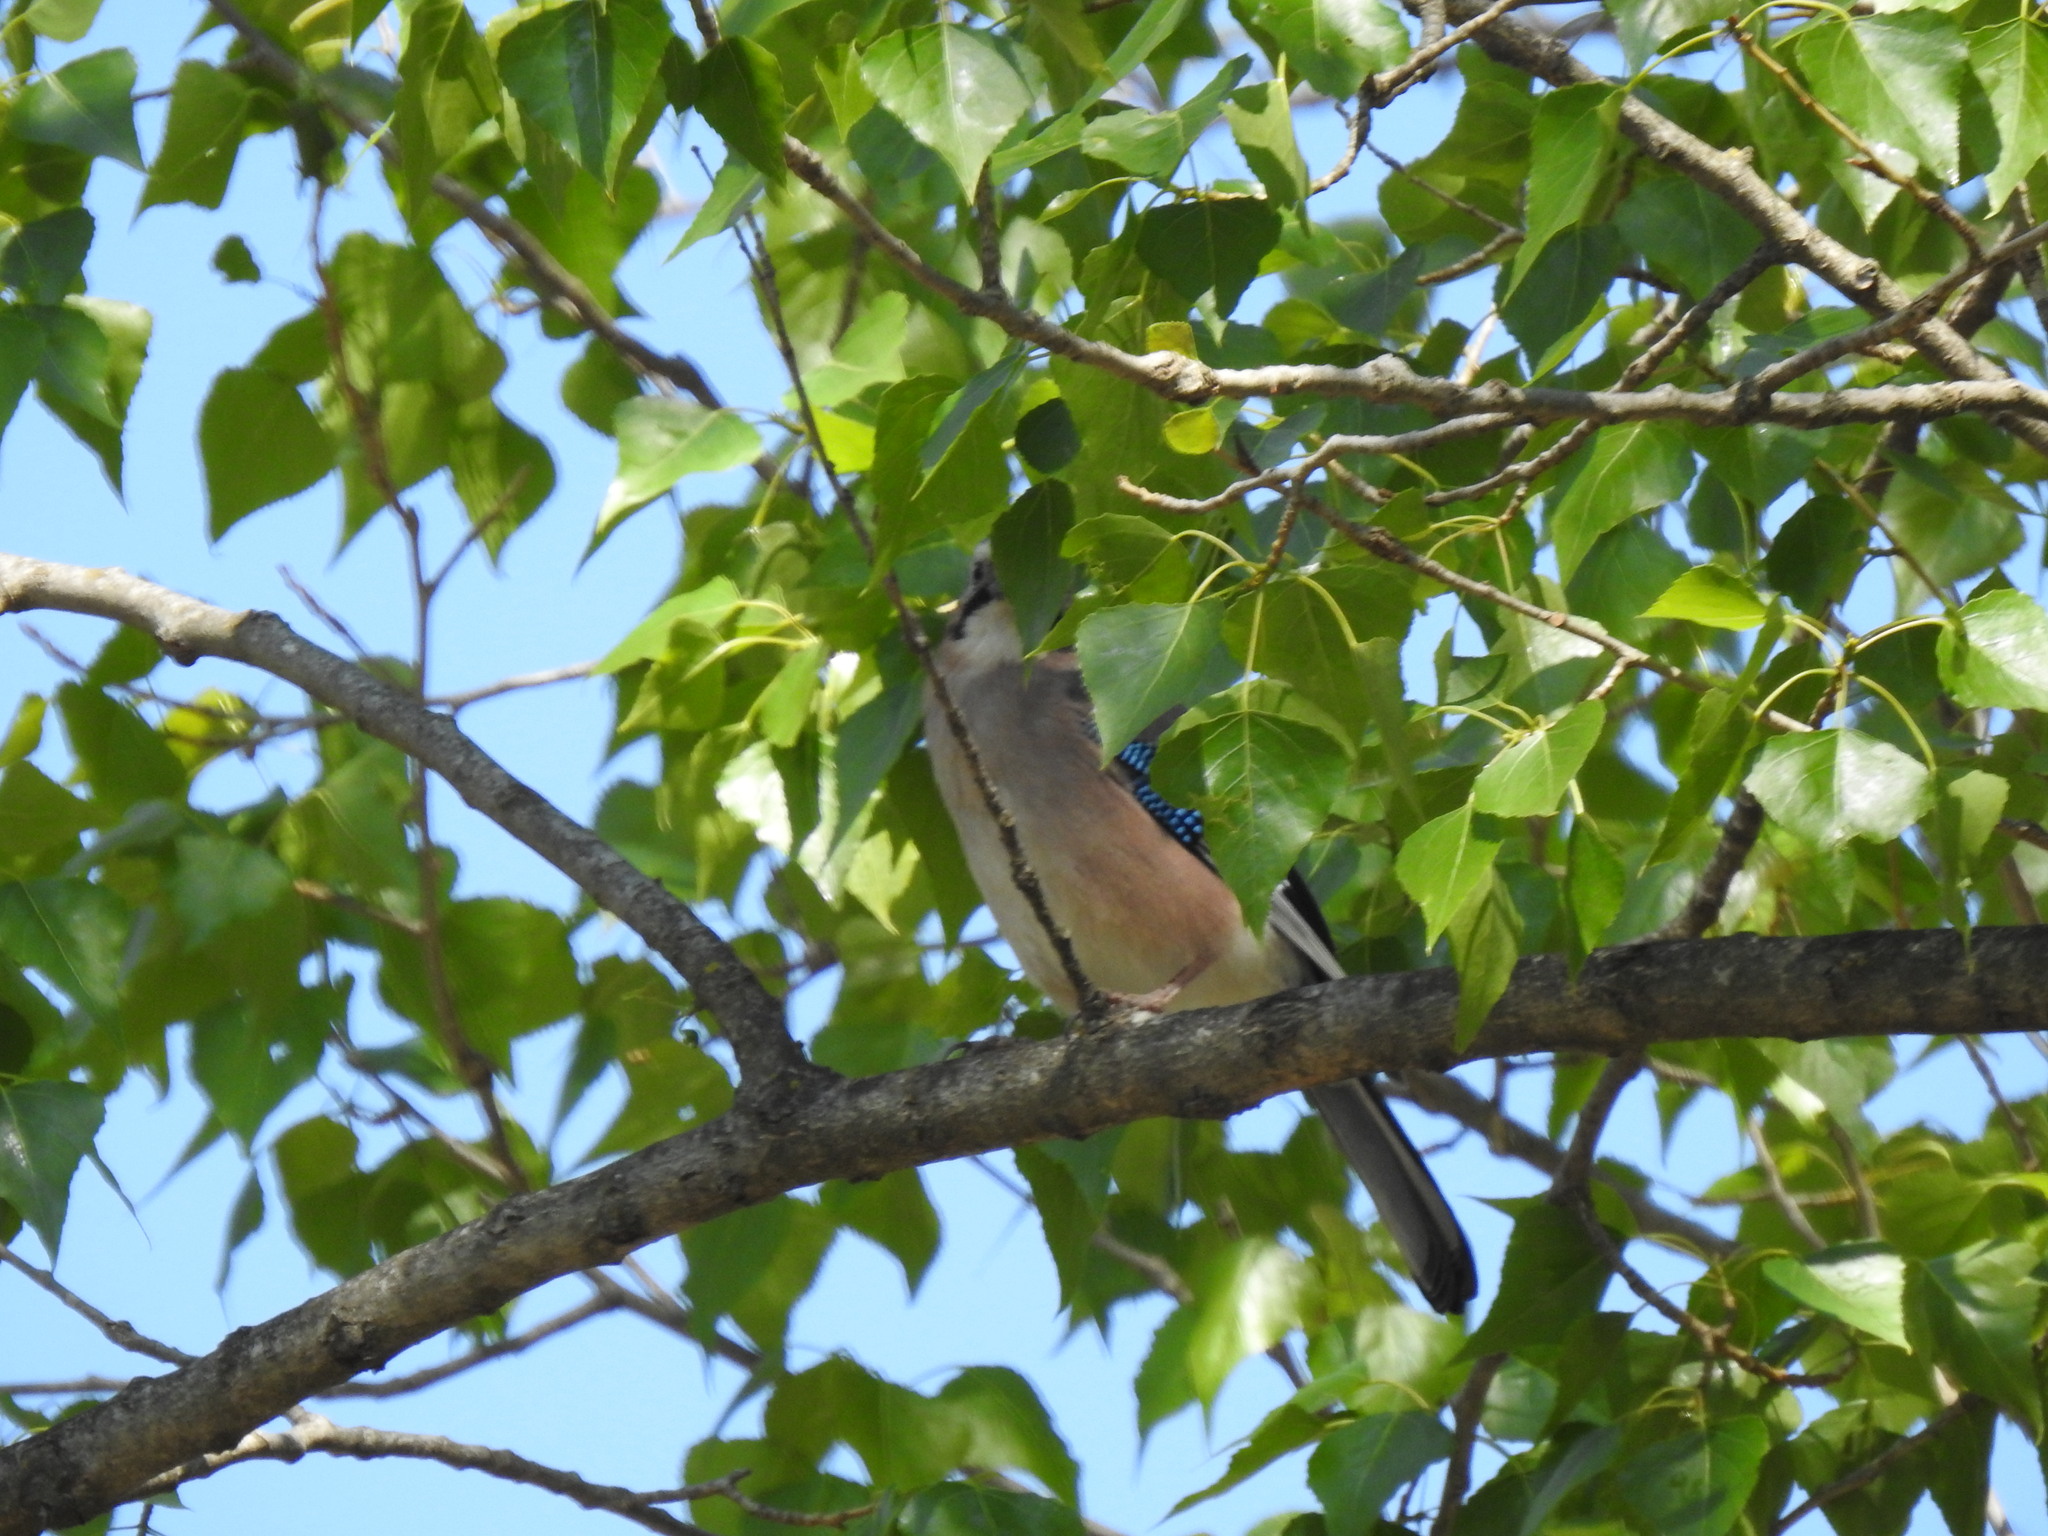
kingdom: Animalia
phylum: Chordata
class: Aves
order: Passeriformes
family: Corvidae
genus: Garrulus
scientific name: Garrulus glandarius
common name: Eurasian jay
